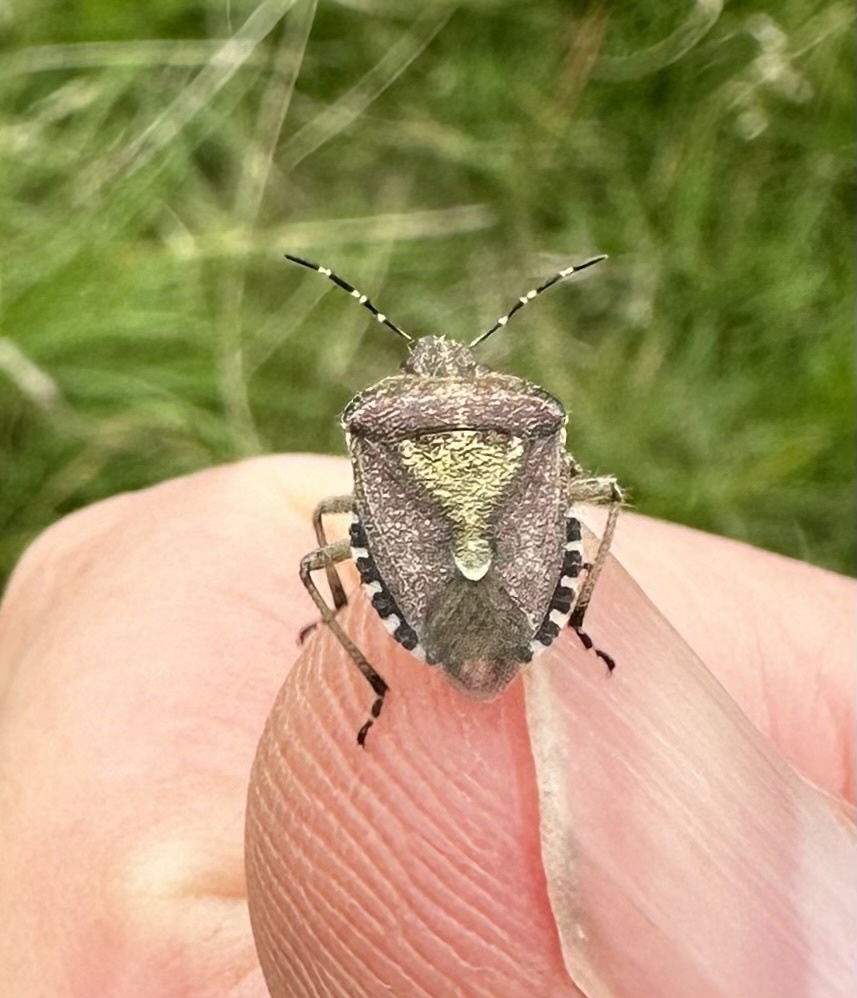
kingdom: Animalia
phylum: Arthropoda
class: Insecta
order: Hemiptera
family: Pentatomidae
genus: Dolycoris
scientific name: Dolycoris baccarum
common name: Sloe bug
